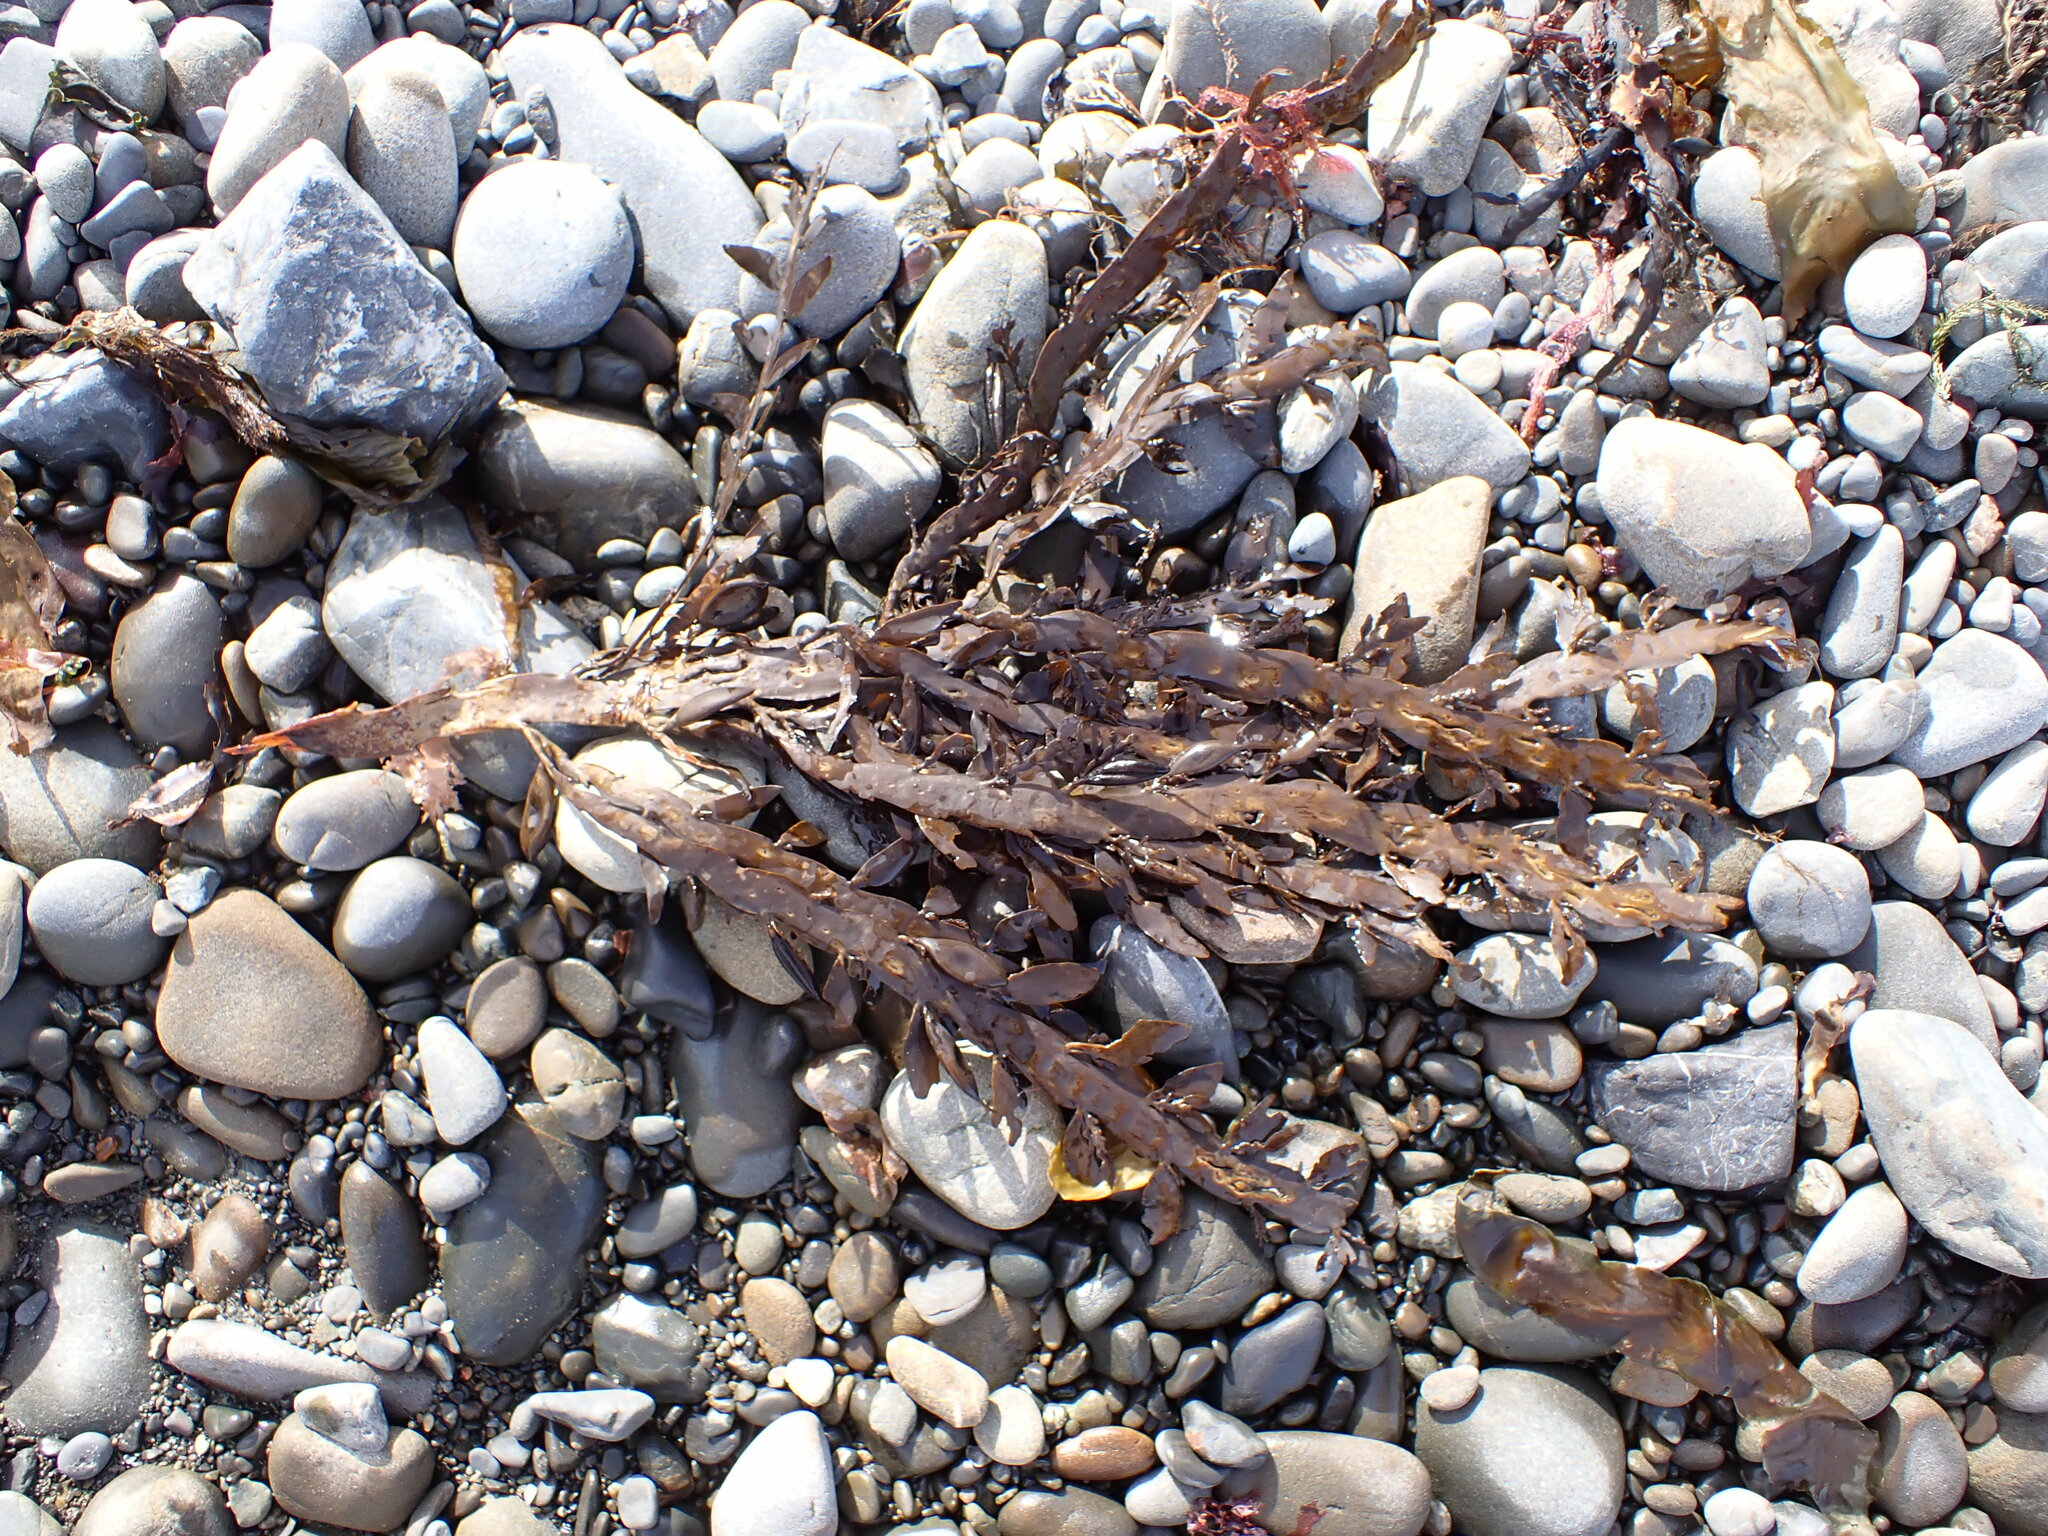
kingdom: Chromista
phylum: Ochrophyta
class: Phaeophyceae
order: Fucales
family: Sargassaceae
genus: Carpophyllum
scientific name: Carpophyllum maschalocarpum
